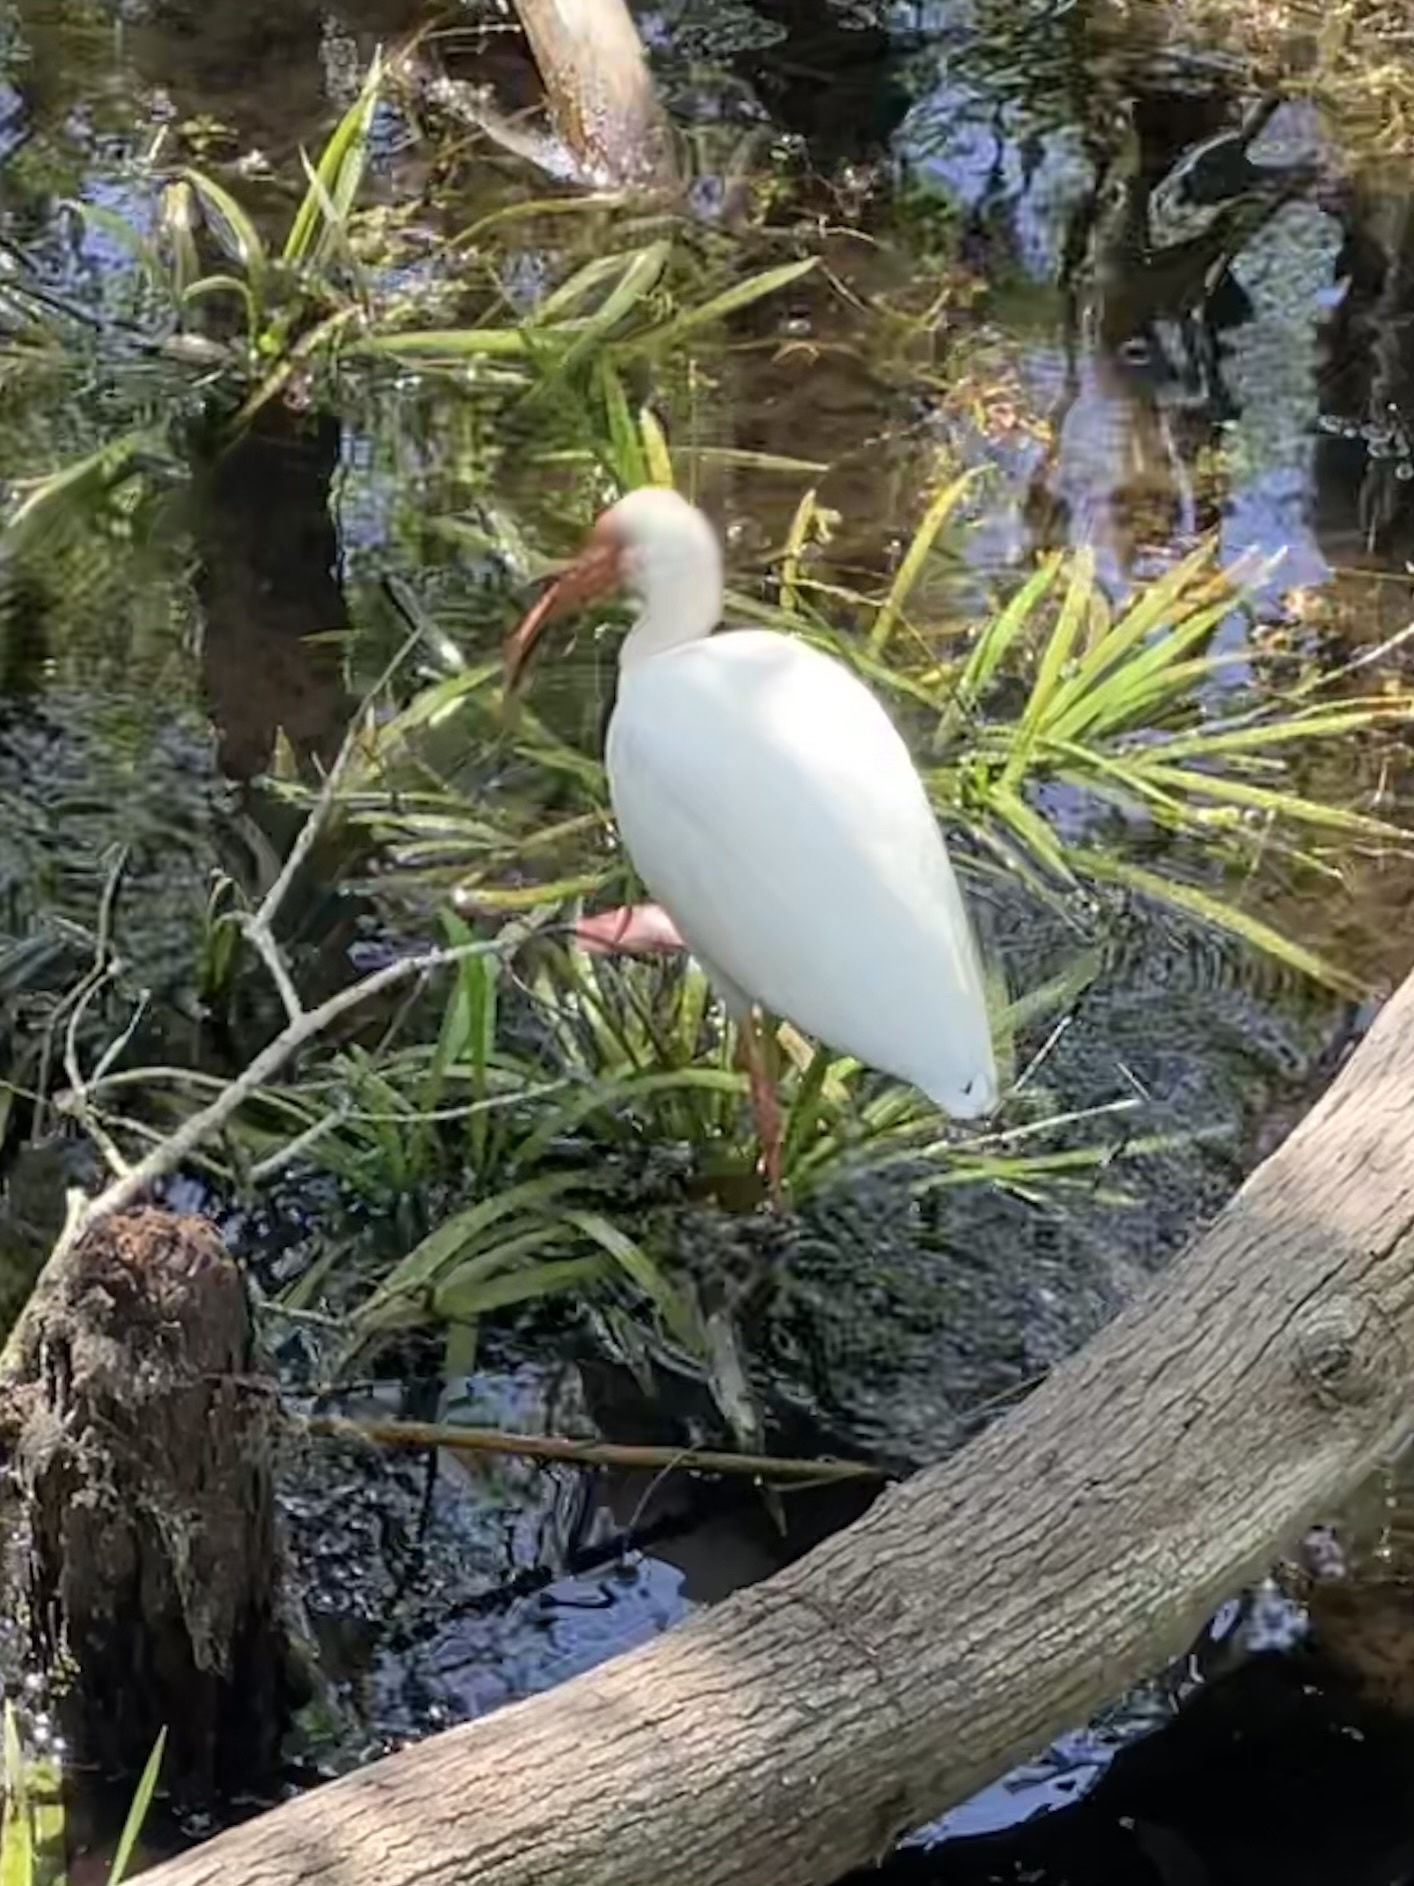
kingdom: Animalia
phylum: Chordata
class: Aves
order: Pelecaniformes
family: Threskiornithidae
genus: Eudocimus
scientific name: Eudocimus albus
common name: White ibis
